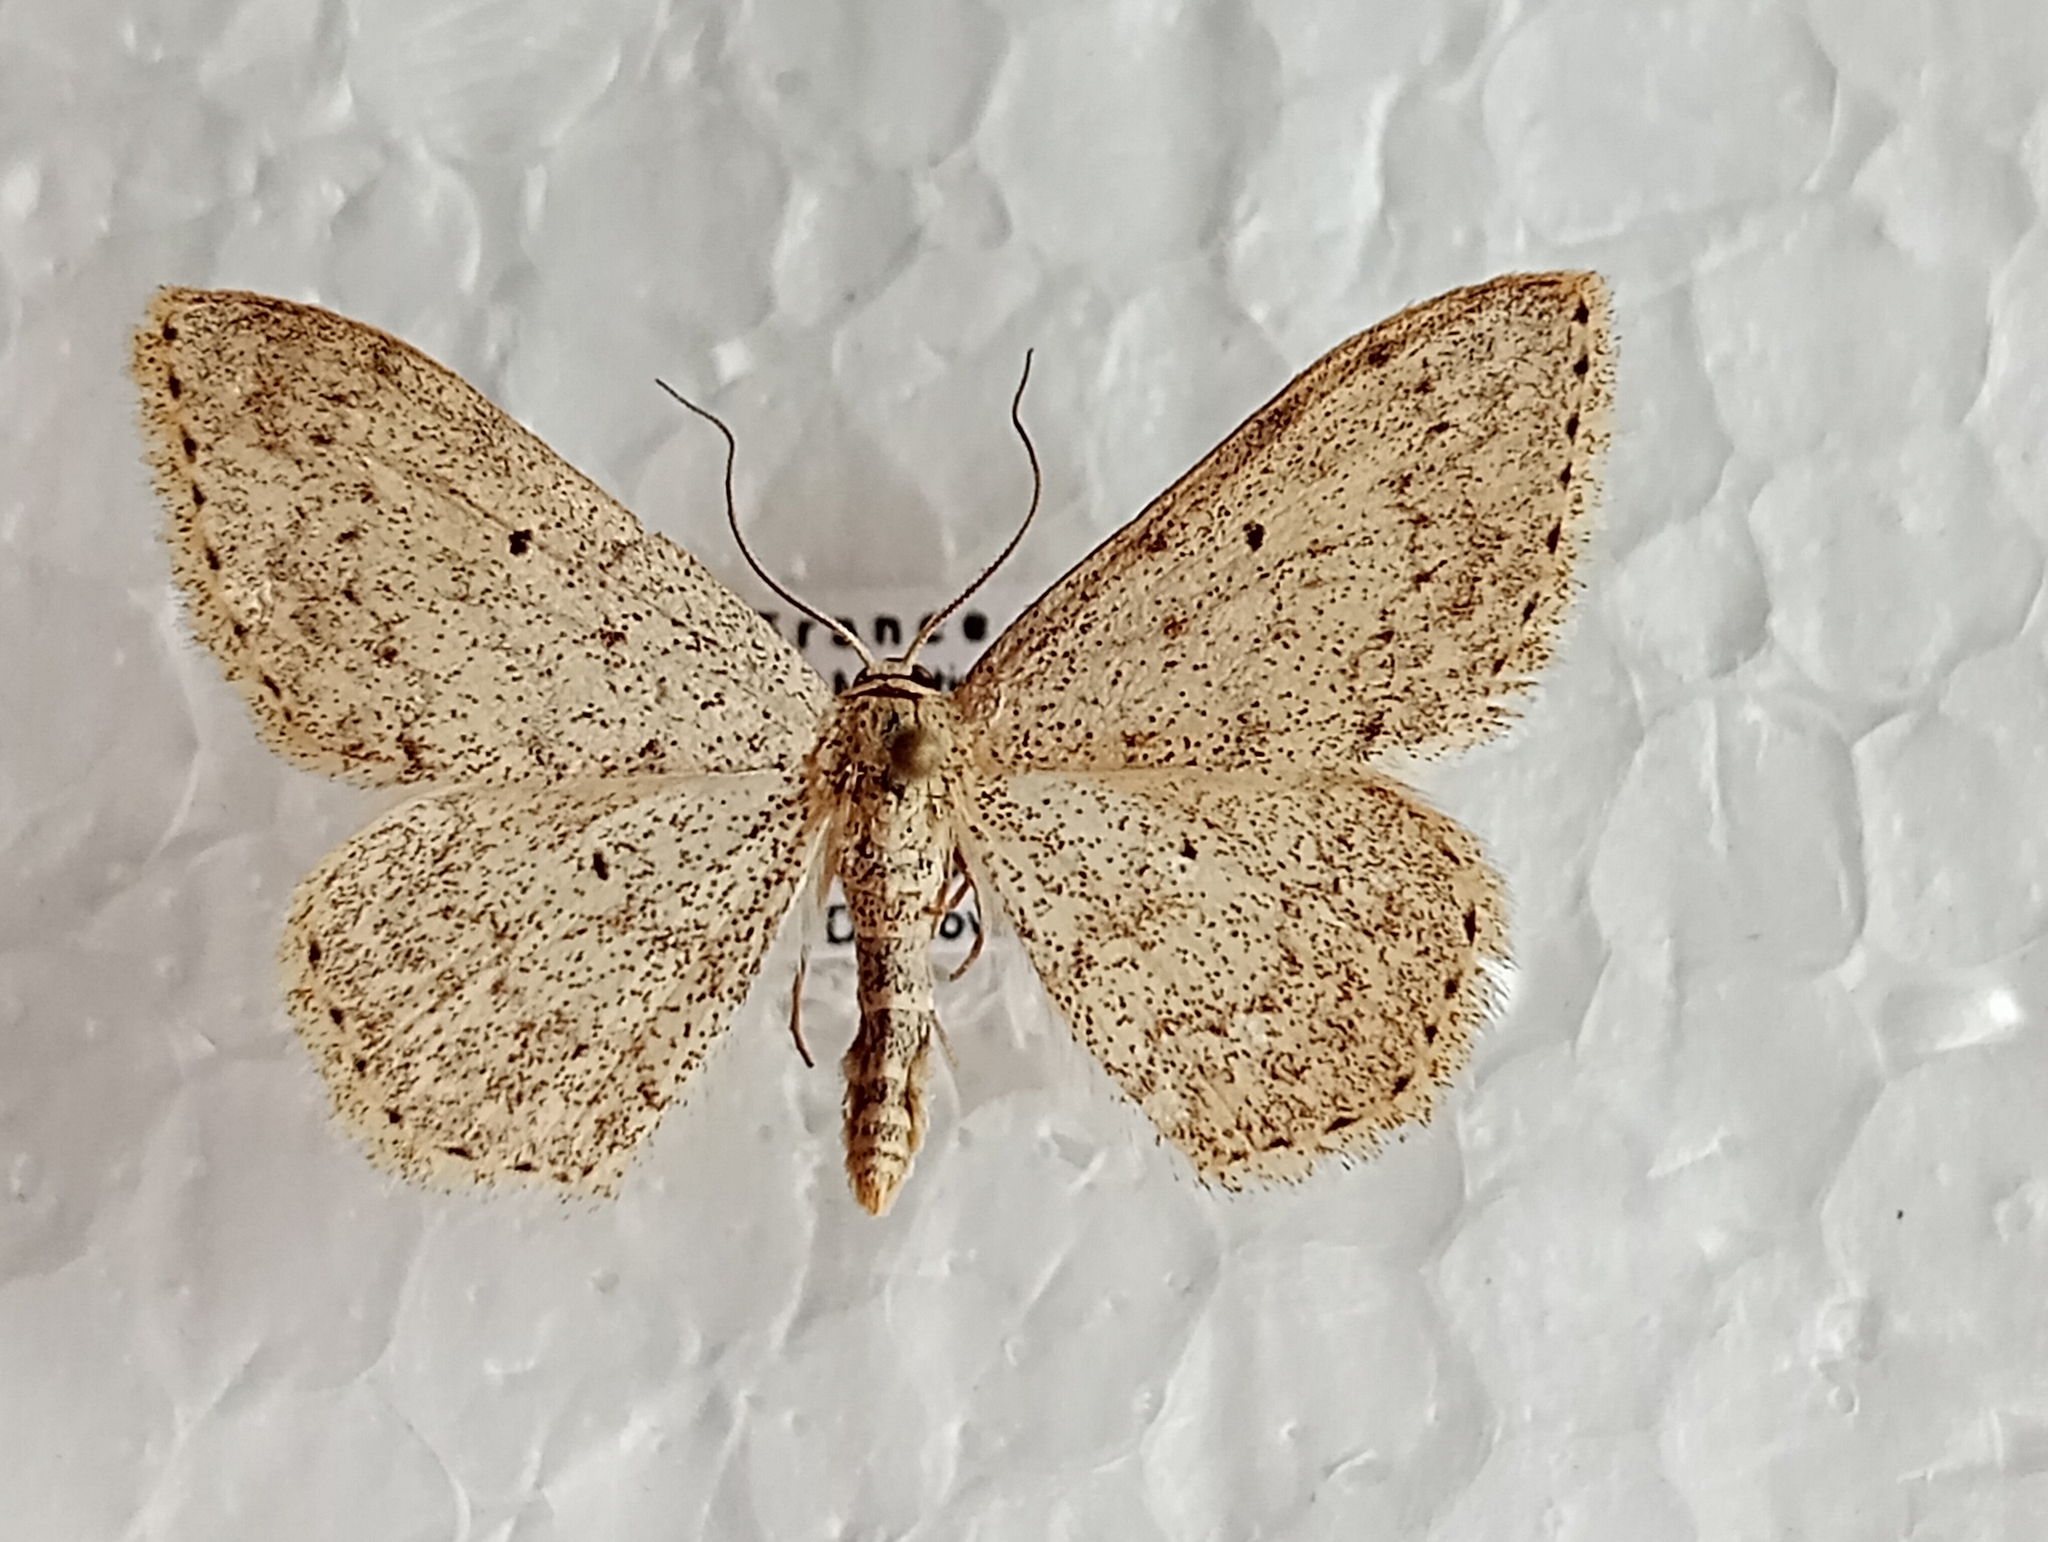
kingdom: Animalia
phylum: Arthropoda
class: Insecta
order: Lepidoptera
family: Geometridae
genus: Scopula
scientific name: Scopula marginepunctata
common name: Mullein wave
